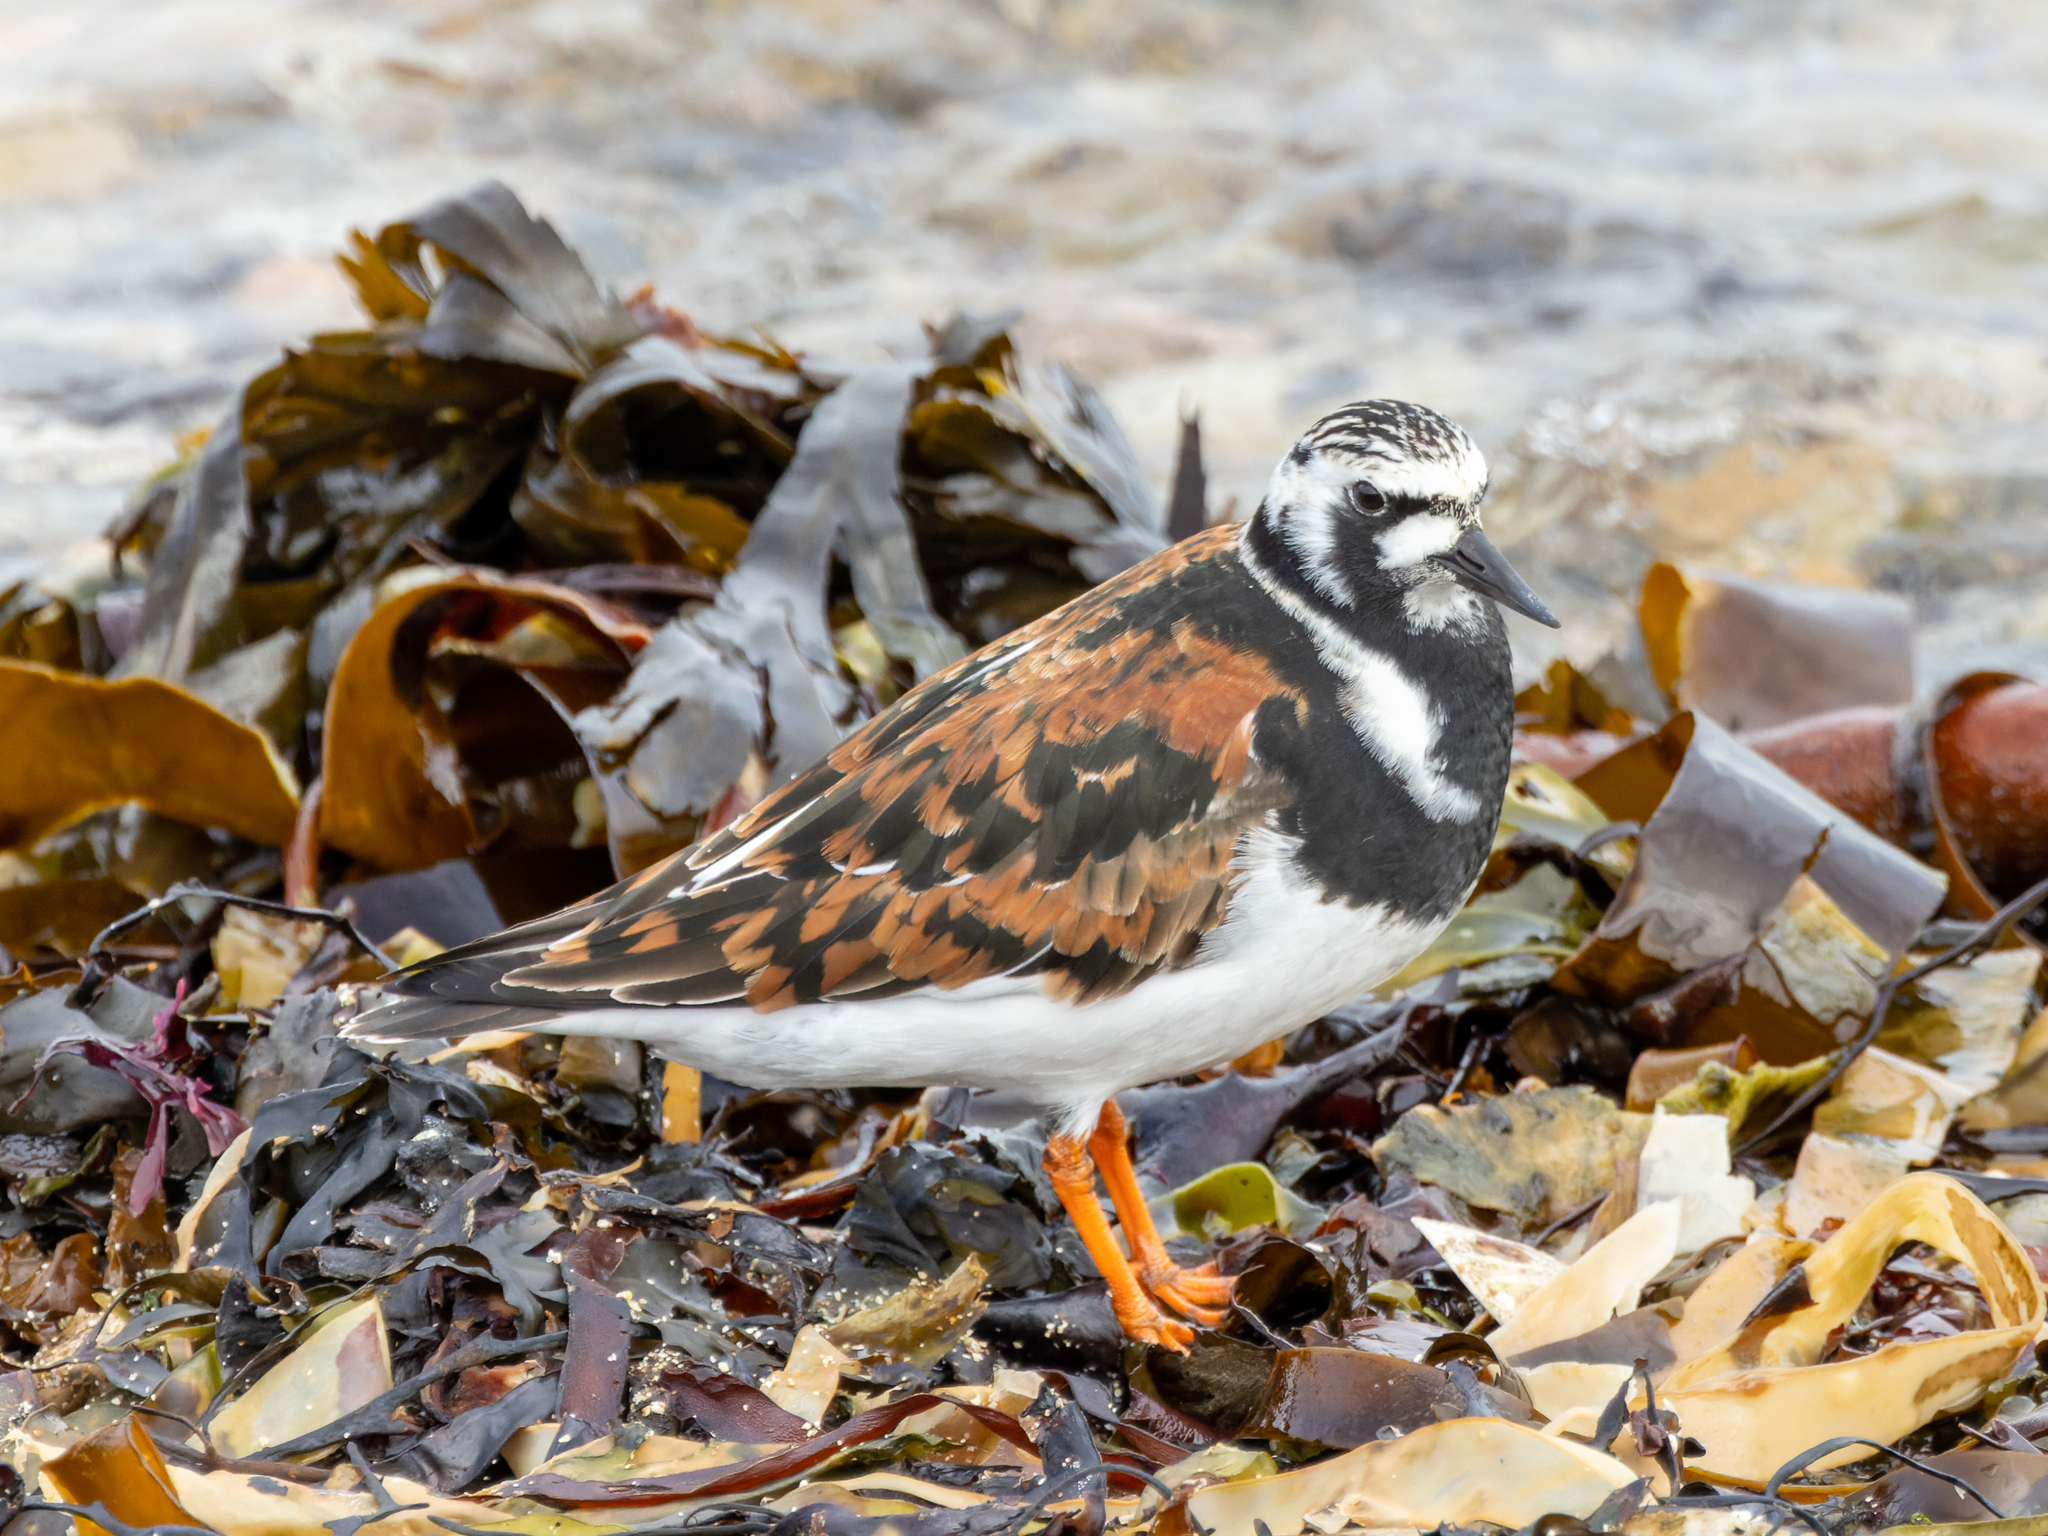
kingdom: Animalia
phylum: Chordata
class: Aves
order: Charadriiformes
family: Scolopacidae
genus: Arenaria
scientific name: Arenaria interpres
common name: Ruddy turnstone
